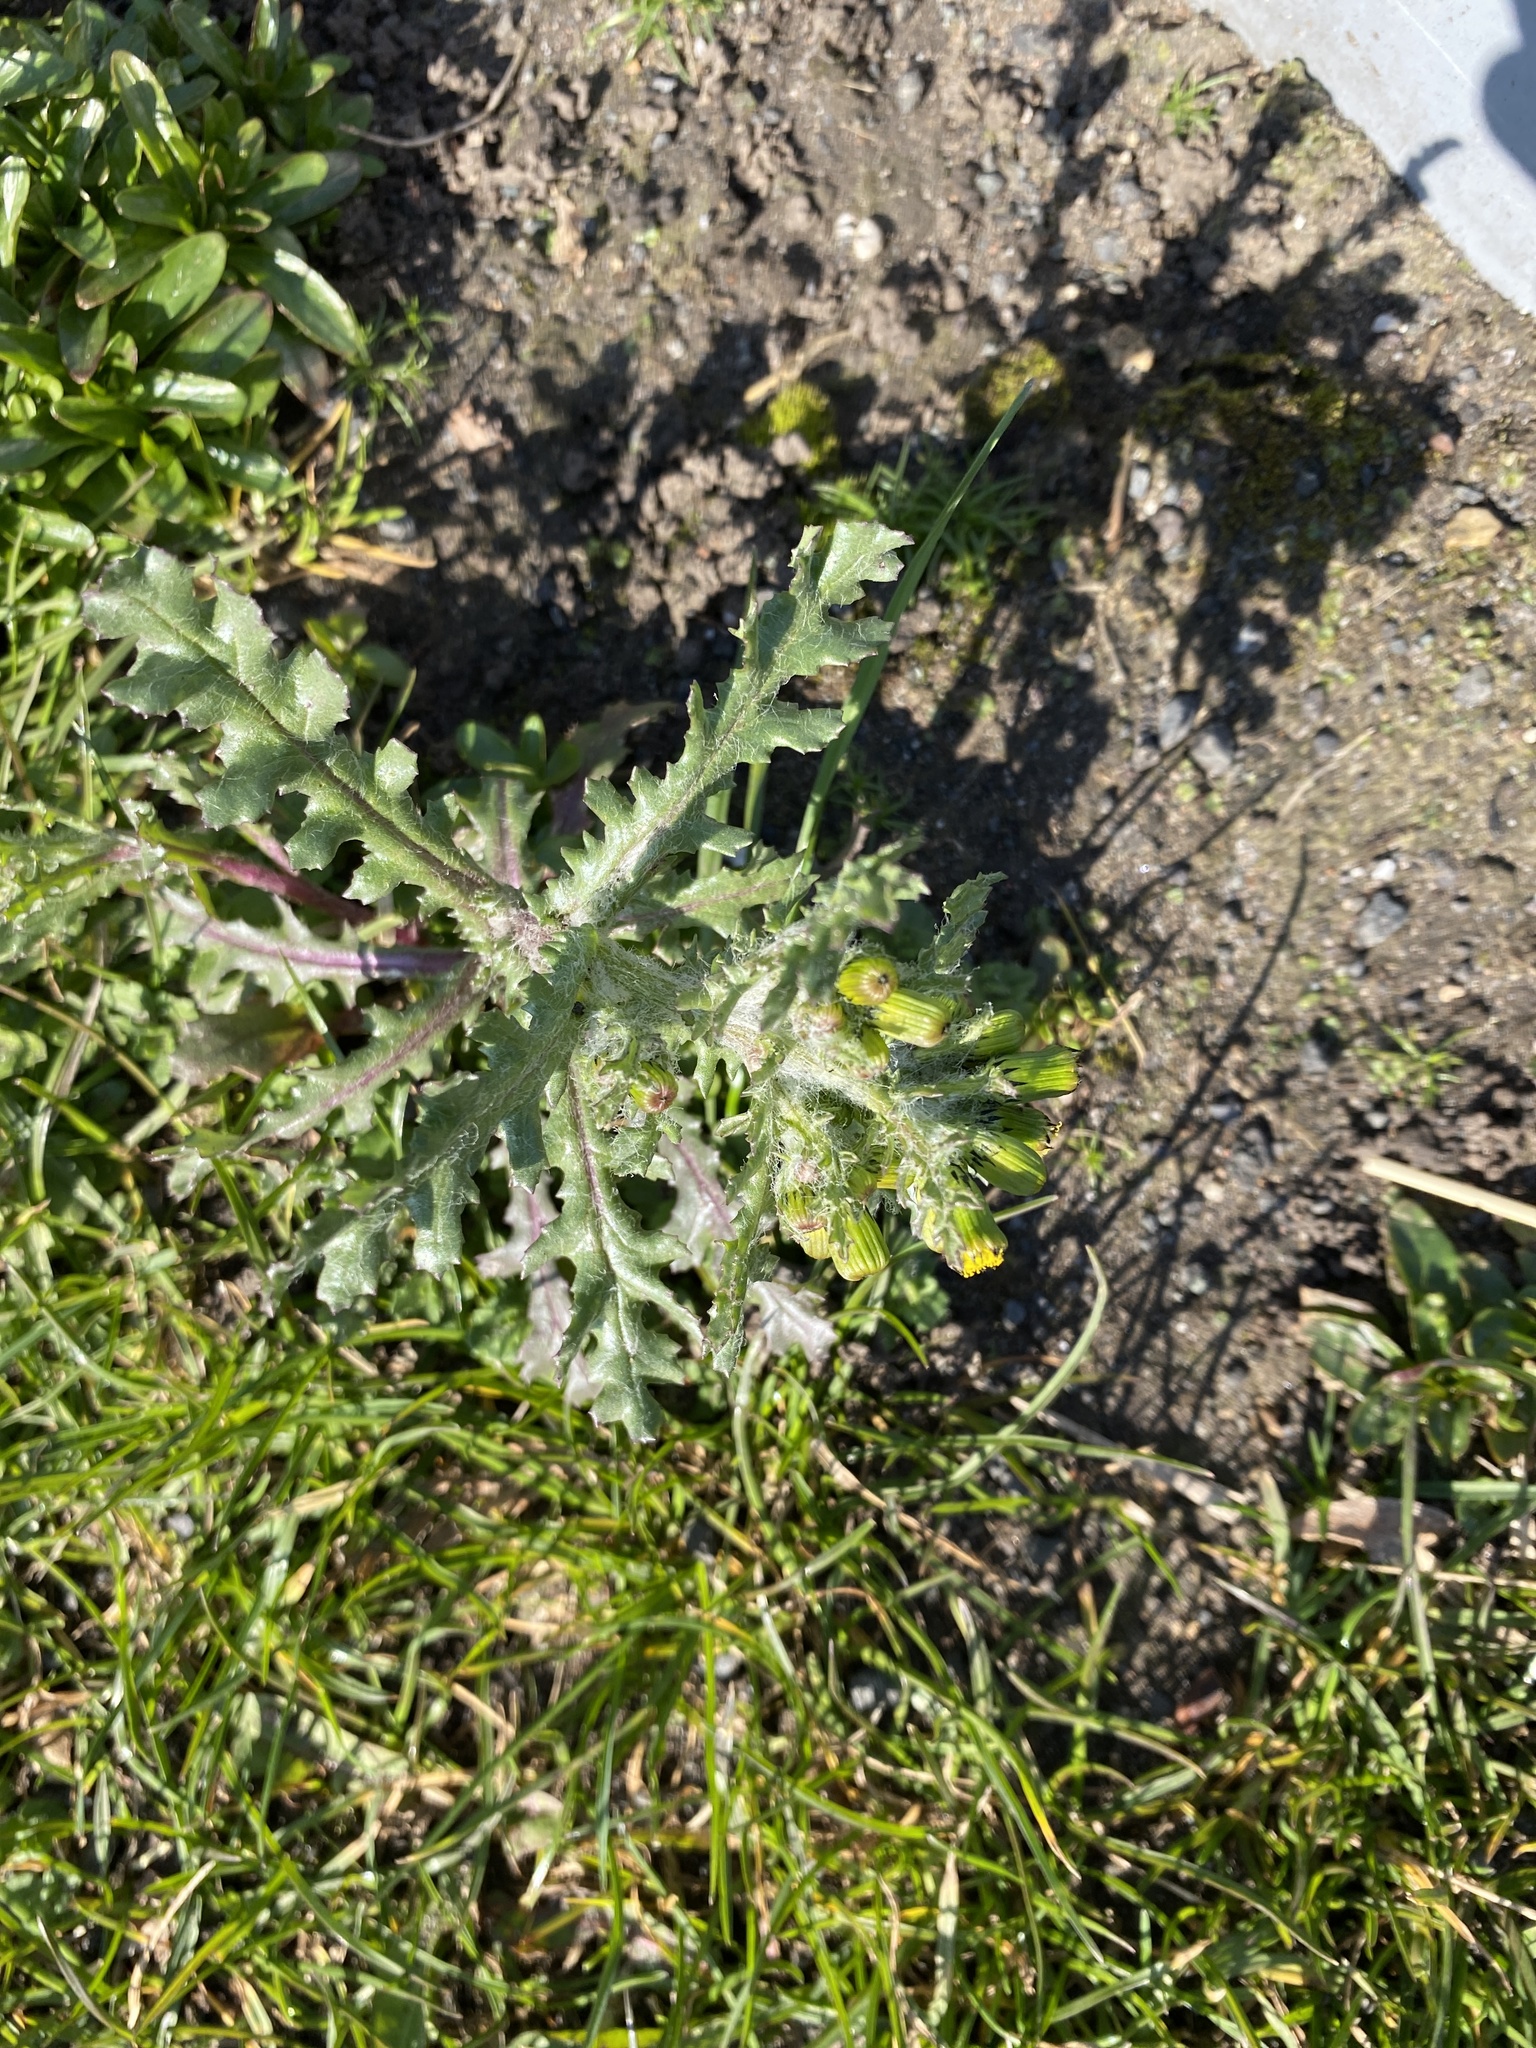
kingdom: Plantae
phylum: Tracheophyta
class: Magnoliopsida
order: Asterales
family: Asteraceae
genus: Senecio
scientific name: Senecio vulgaris
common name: Old-man-in-the-spring
